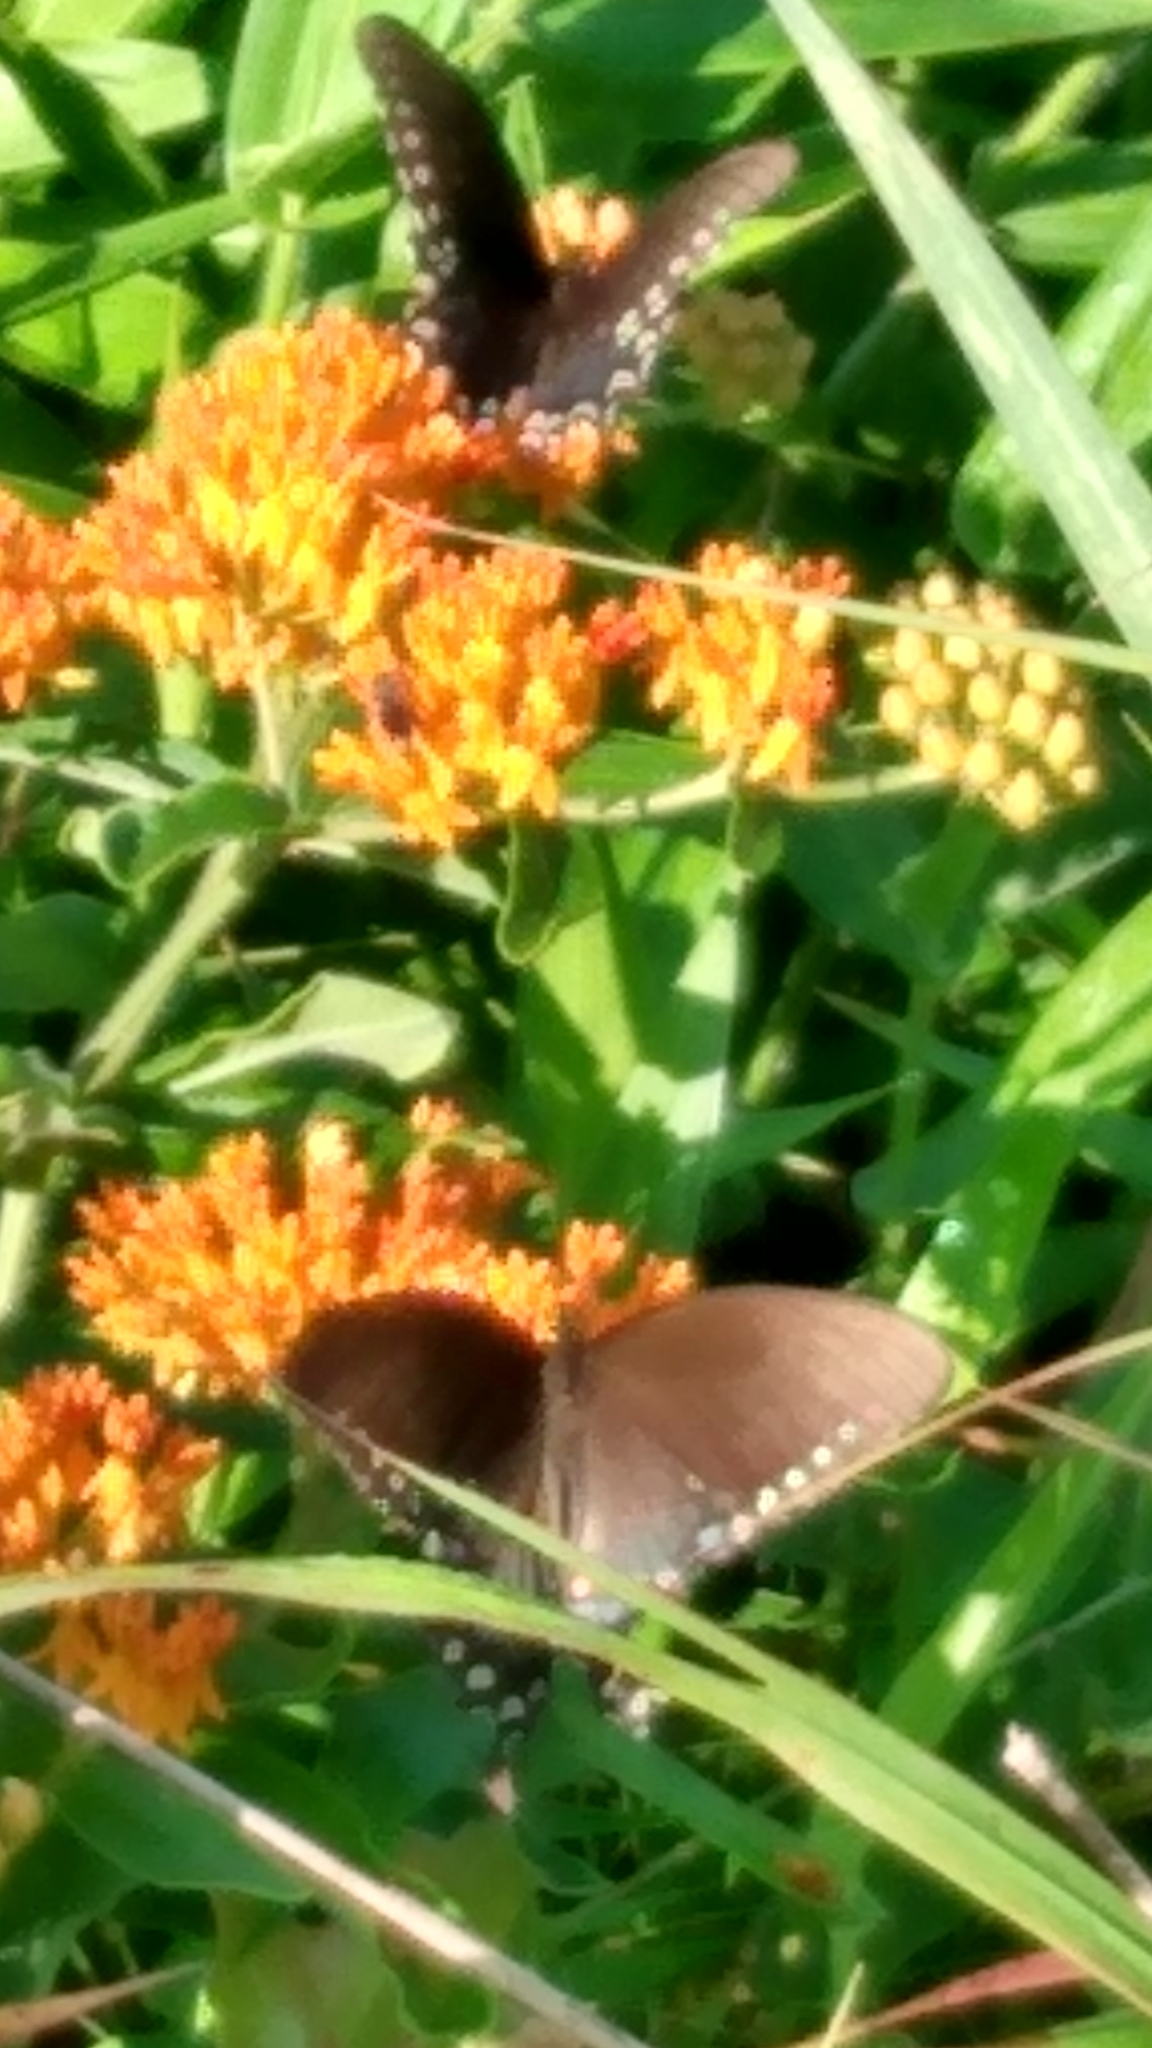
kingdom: Animalia
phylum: Arthropoda
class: Insecta
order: Lepidoptera
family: Papilionidae
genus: Papilio
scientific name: Papilio troilus
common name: Spicebush swallowtail
